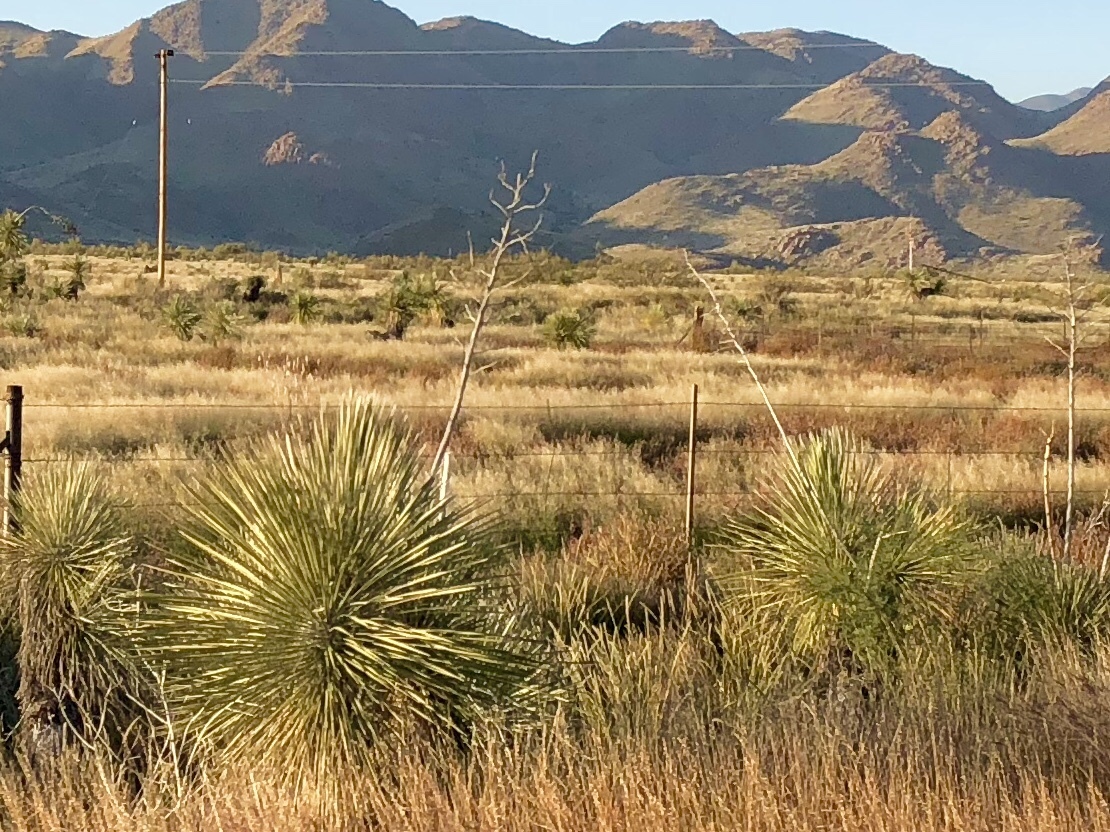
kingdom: Plantae
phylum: Tracheophyta
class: Liliopsida
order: Asparagales
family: Asparagaceae
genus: Yucca
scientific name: Yucca elata
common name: Palmella
